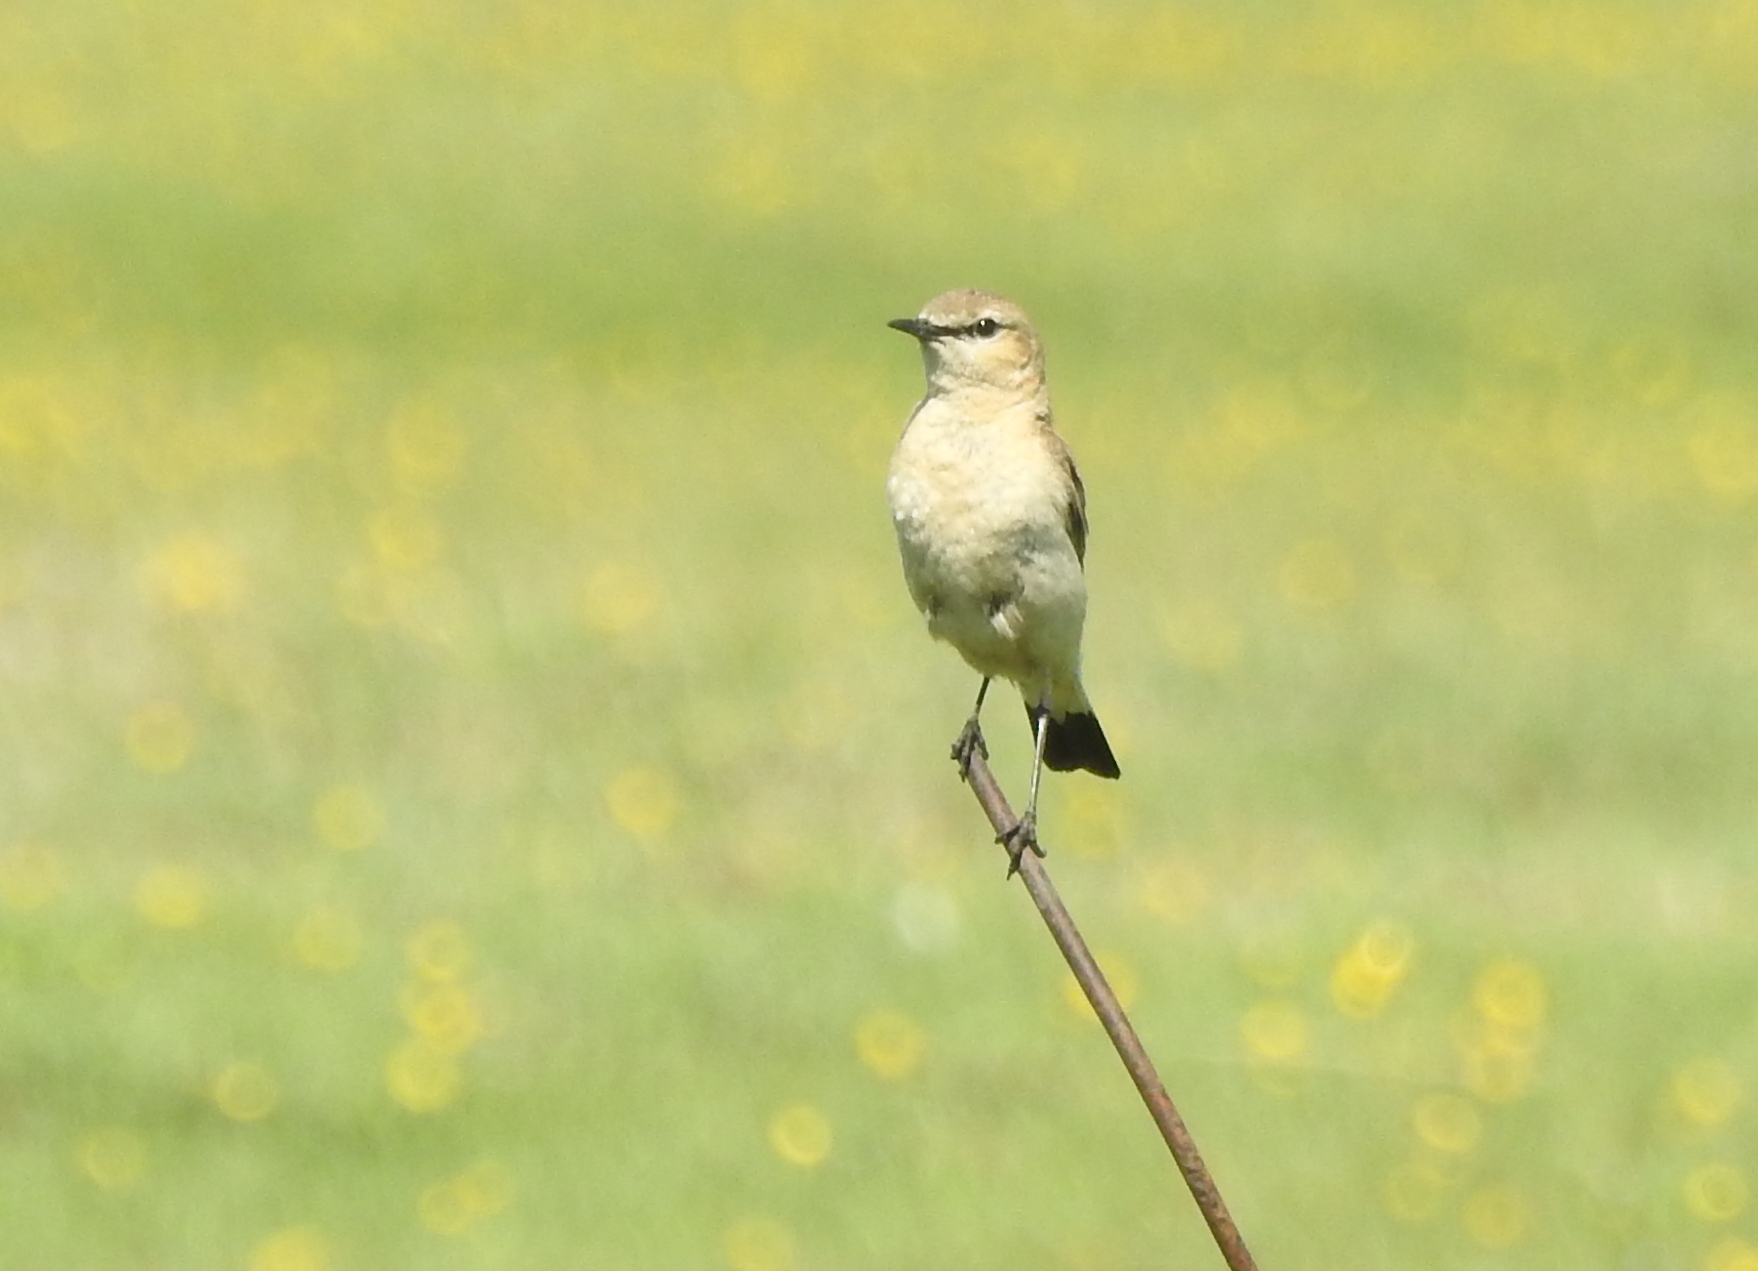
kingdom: Animalia
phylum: Chordata
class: Aves
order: Passeriformes
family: Muscicapidae
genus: Oenanthe
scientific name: Oenanthe isabellina
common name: Isabelline wheatear
